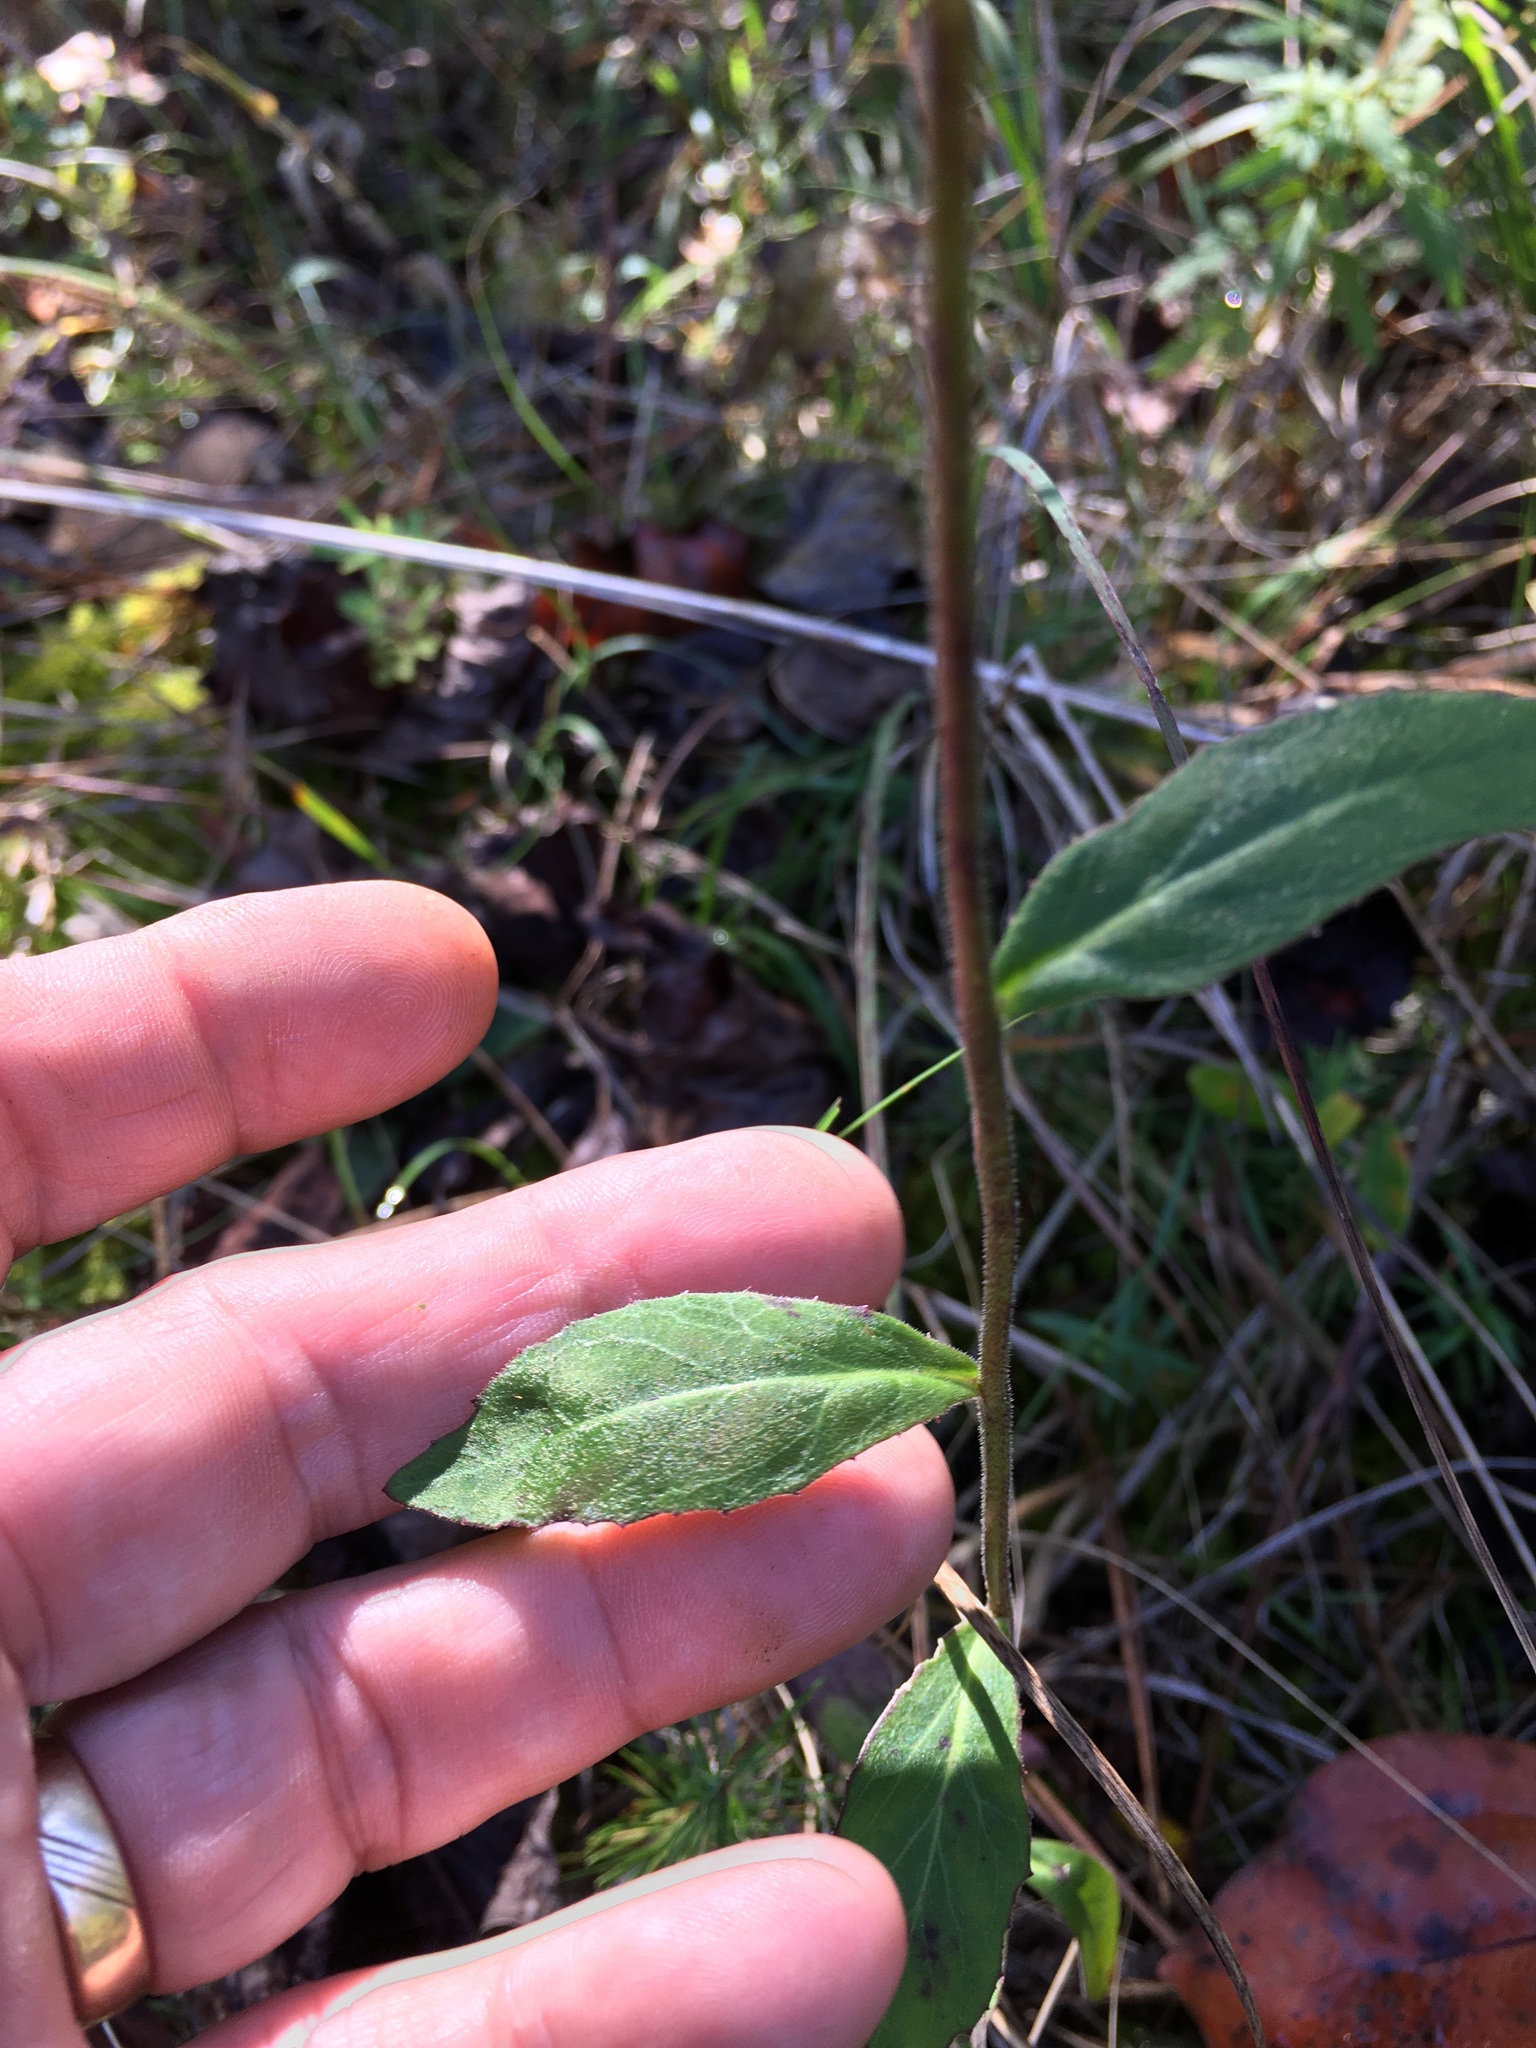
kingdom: Plantae
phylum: Tracheophyta
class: Magnoliopsida
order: Asterales
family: Campanulaceae
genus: Lobelia
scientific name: Lobelia puberula
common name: Purple dewdrop
